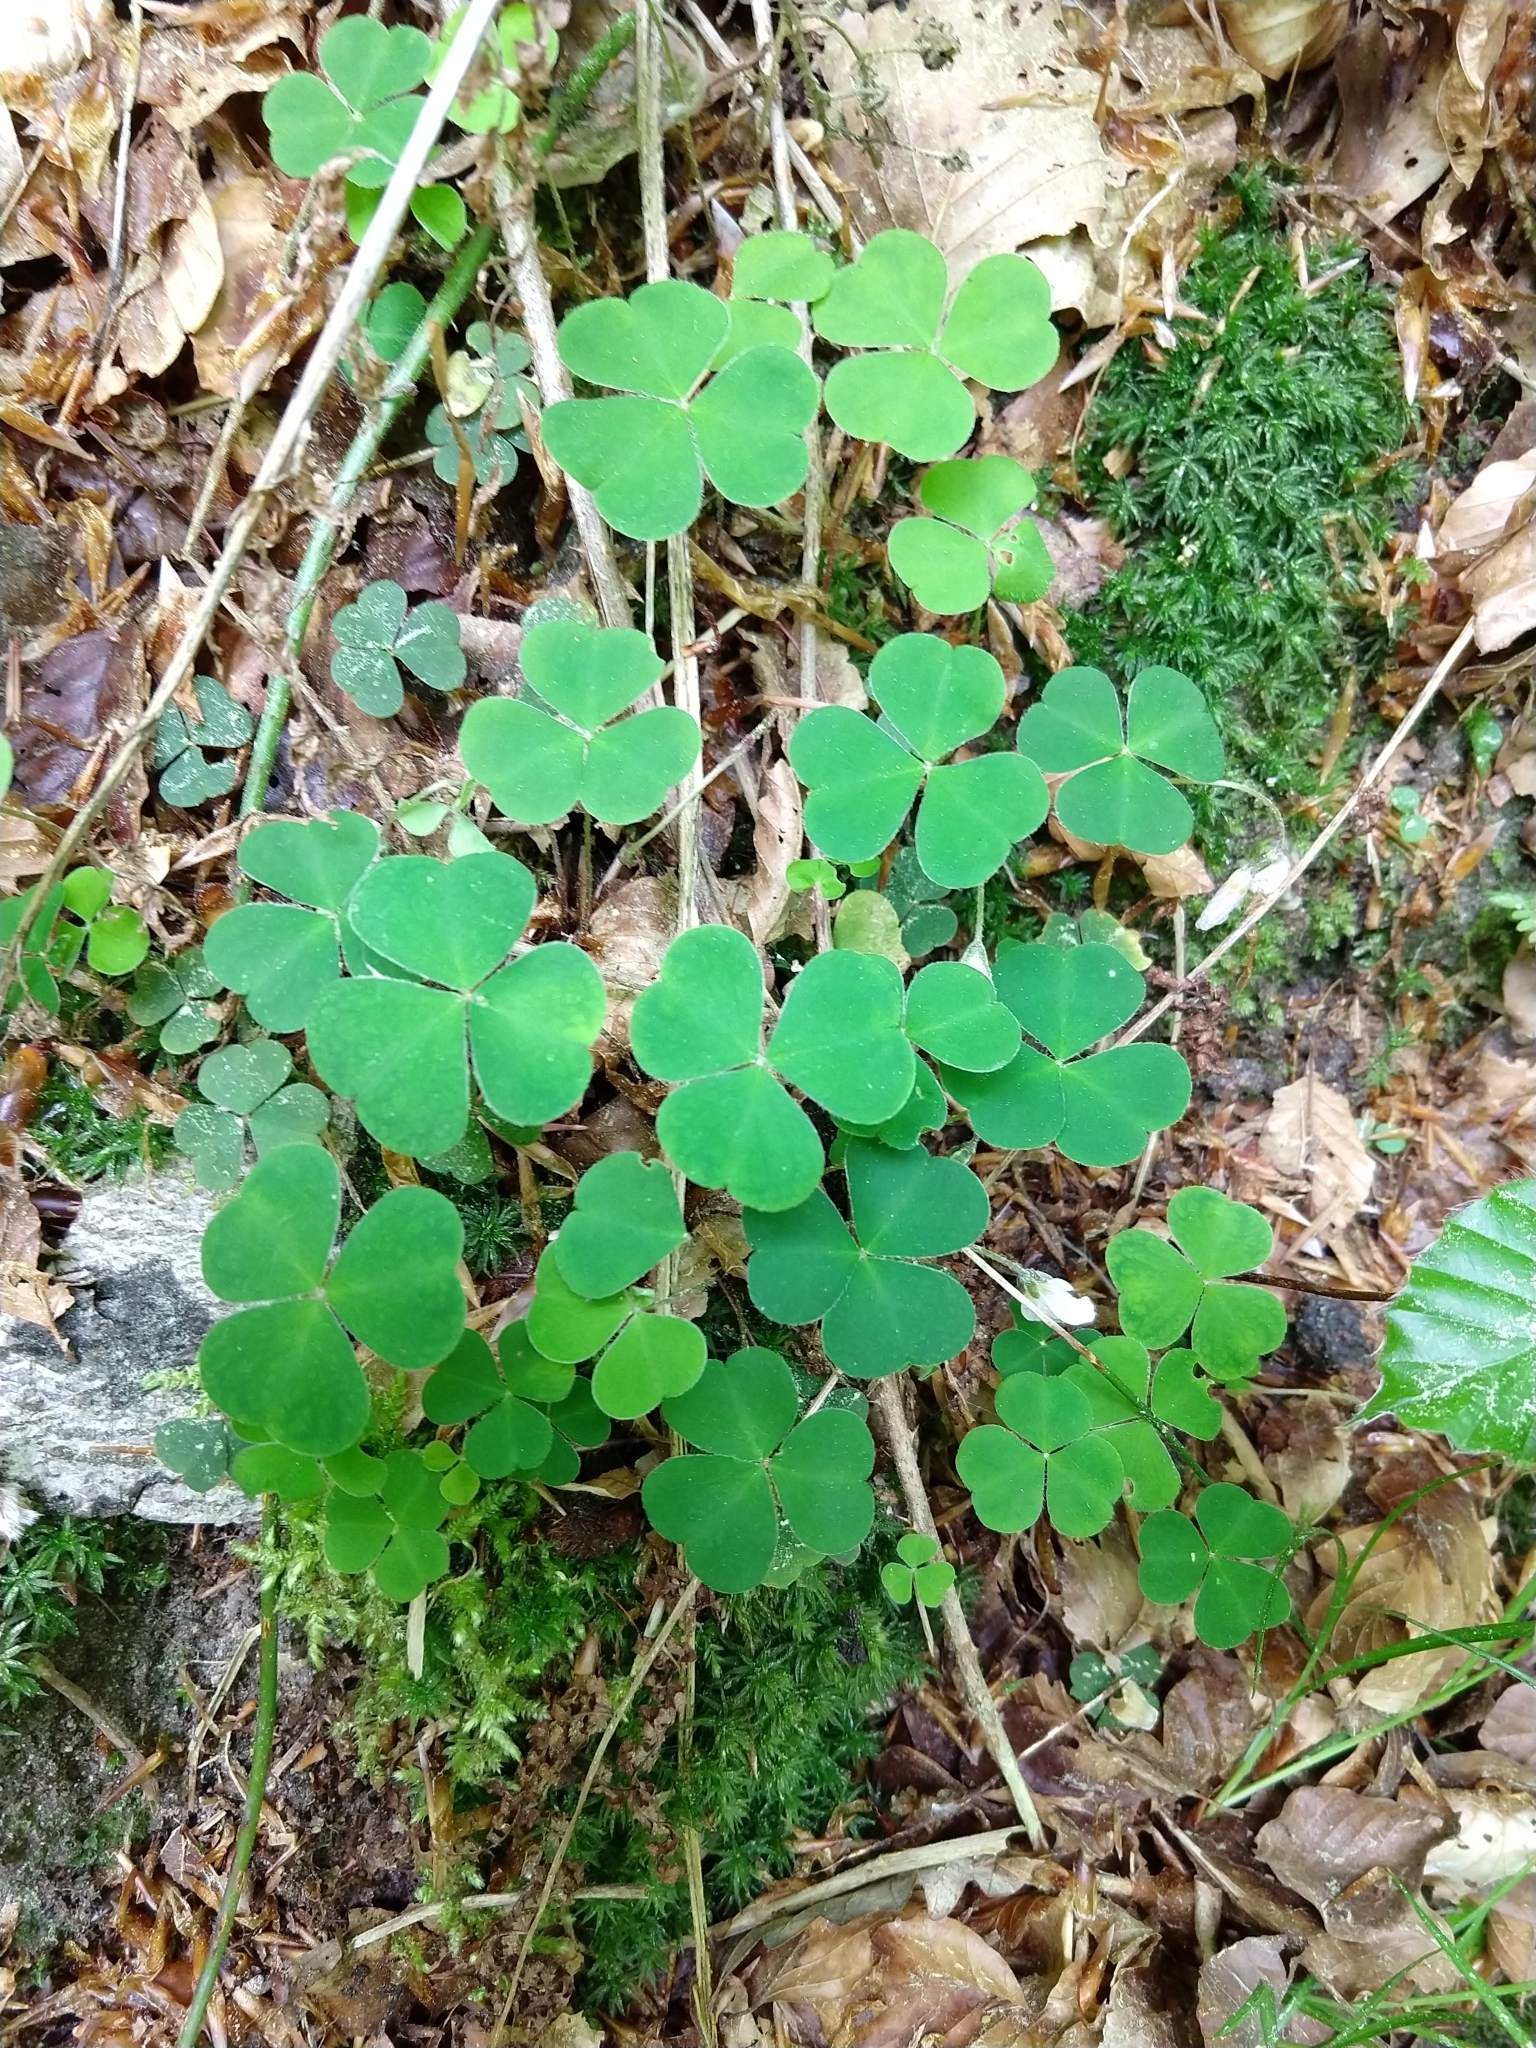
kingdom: Plantae
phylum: Tracheophyta
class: Magnoliopsida
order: Oxalidales
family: Oxalidaceae
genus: Oxalis
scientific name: Oxalis acetosella
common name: Wood-sorrel
